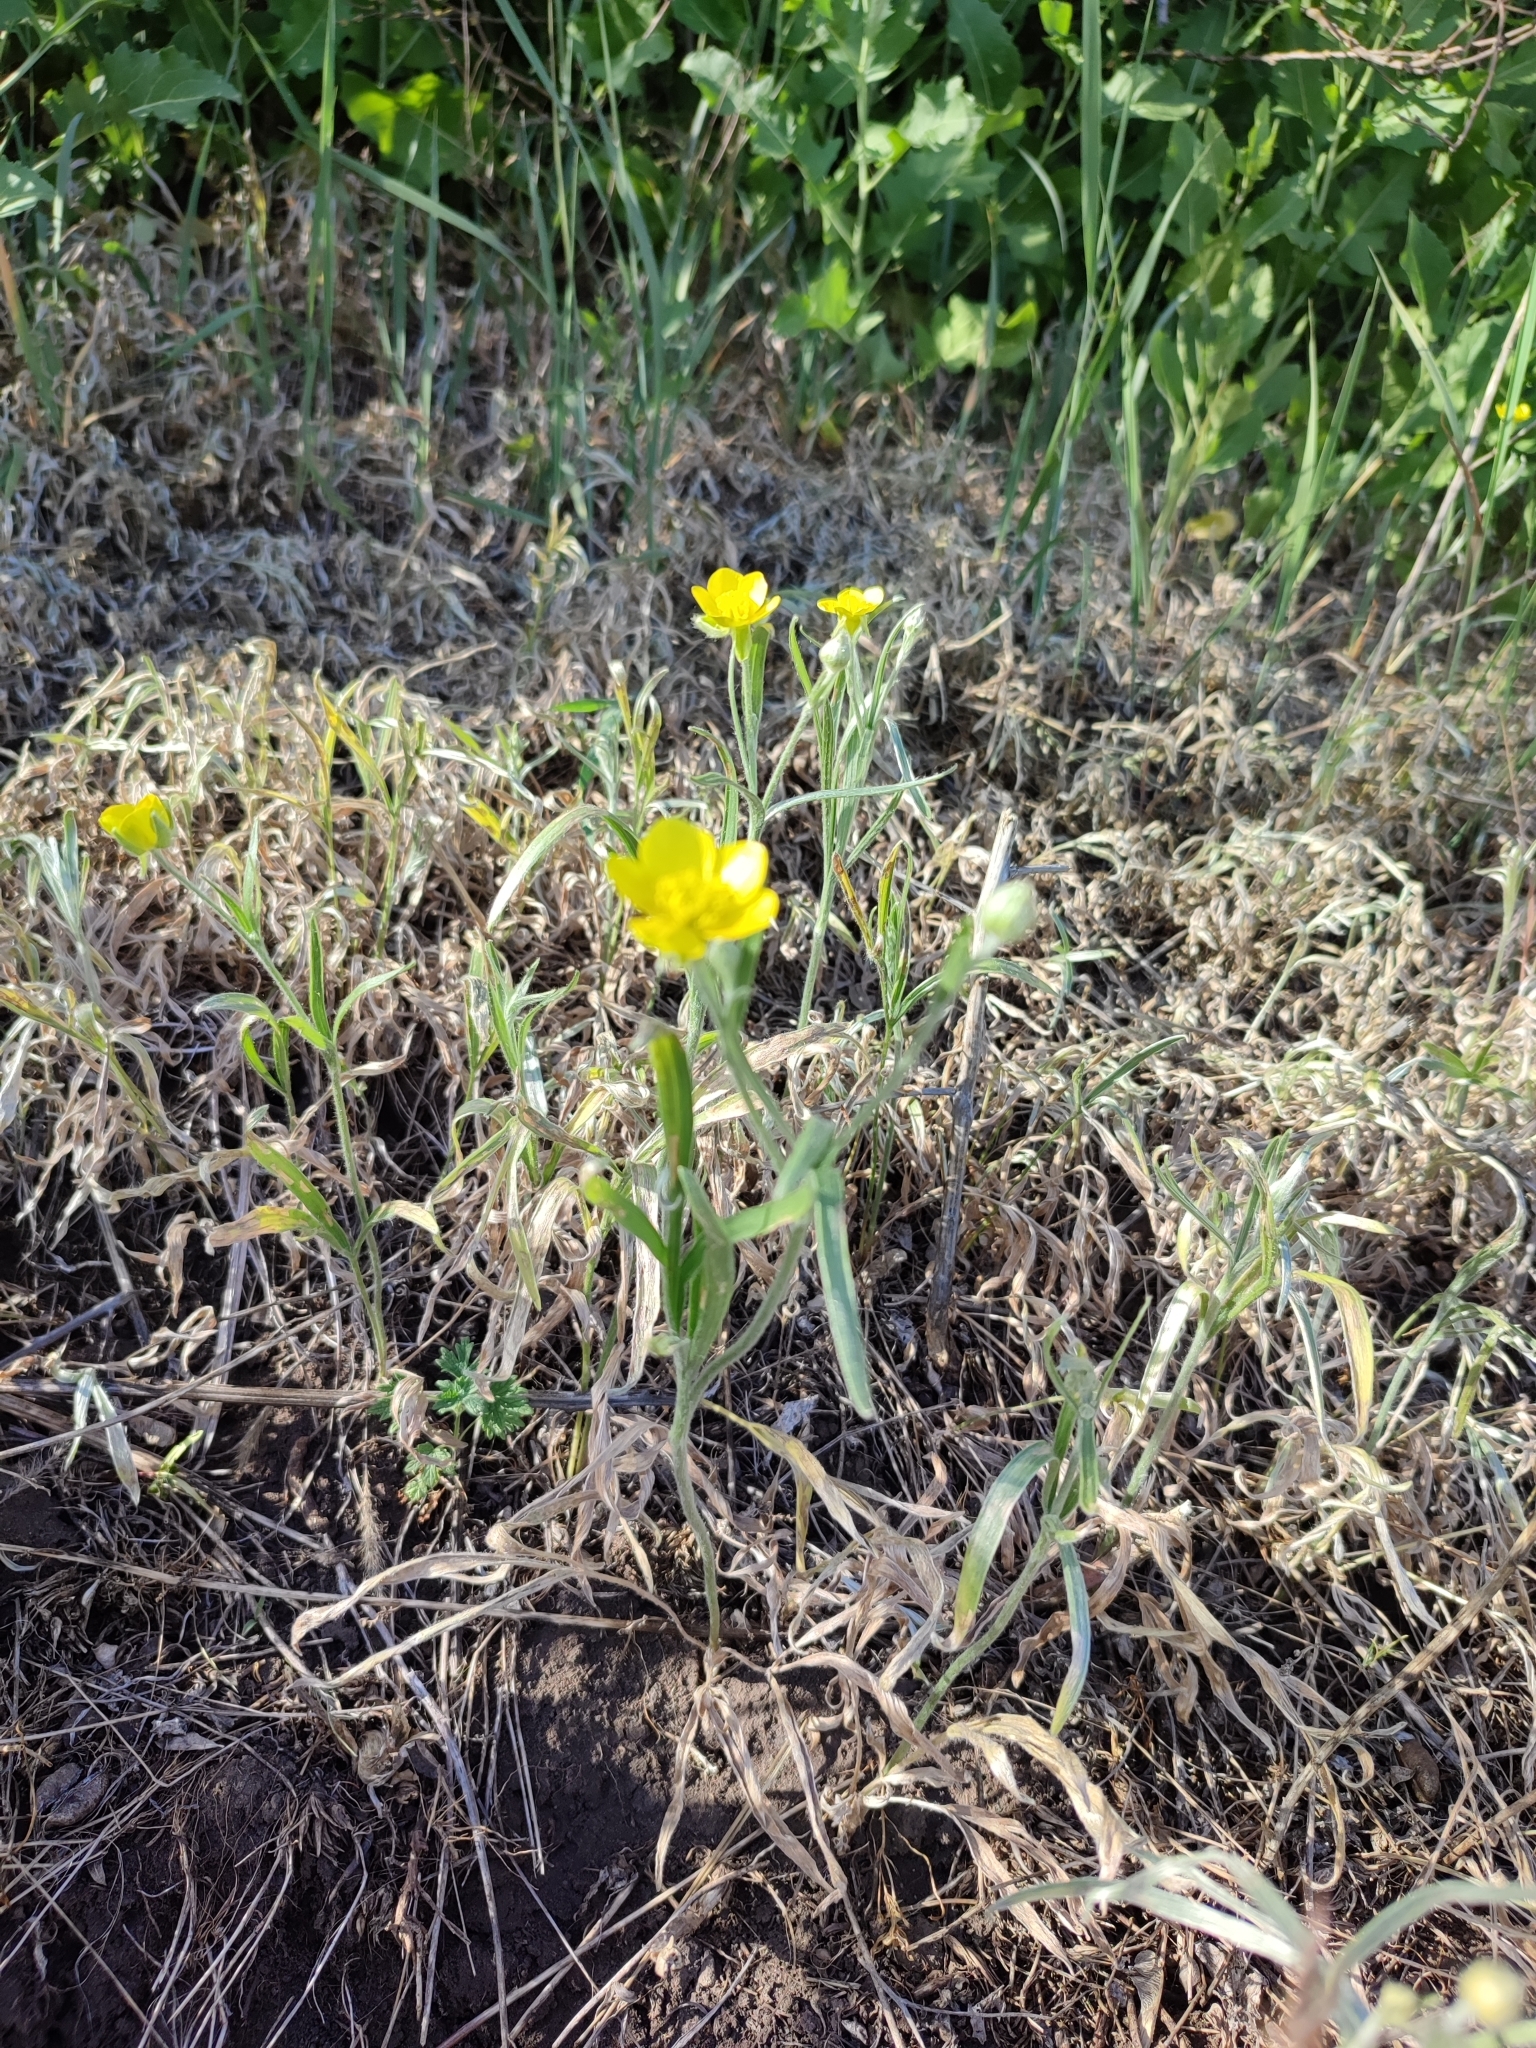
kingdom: Plantae
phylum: Tracheophyta
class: Magnoliopsida
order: Ranunculales
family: Ranunculaceae
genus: Ranunculus
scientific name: Ranunculus illyricus
